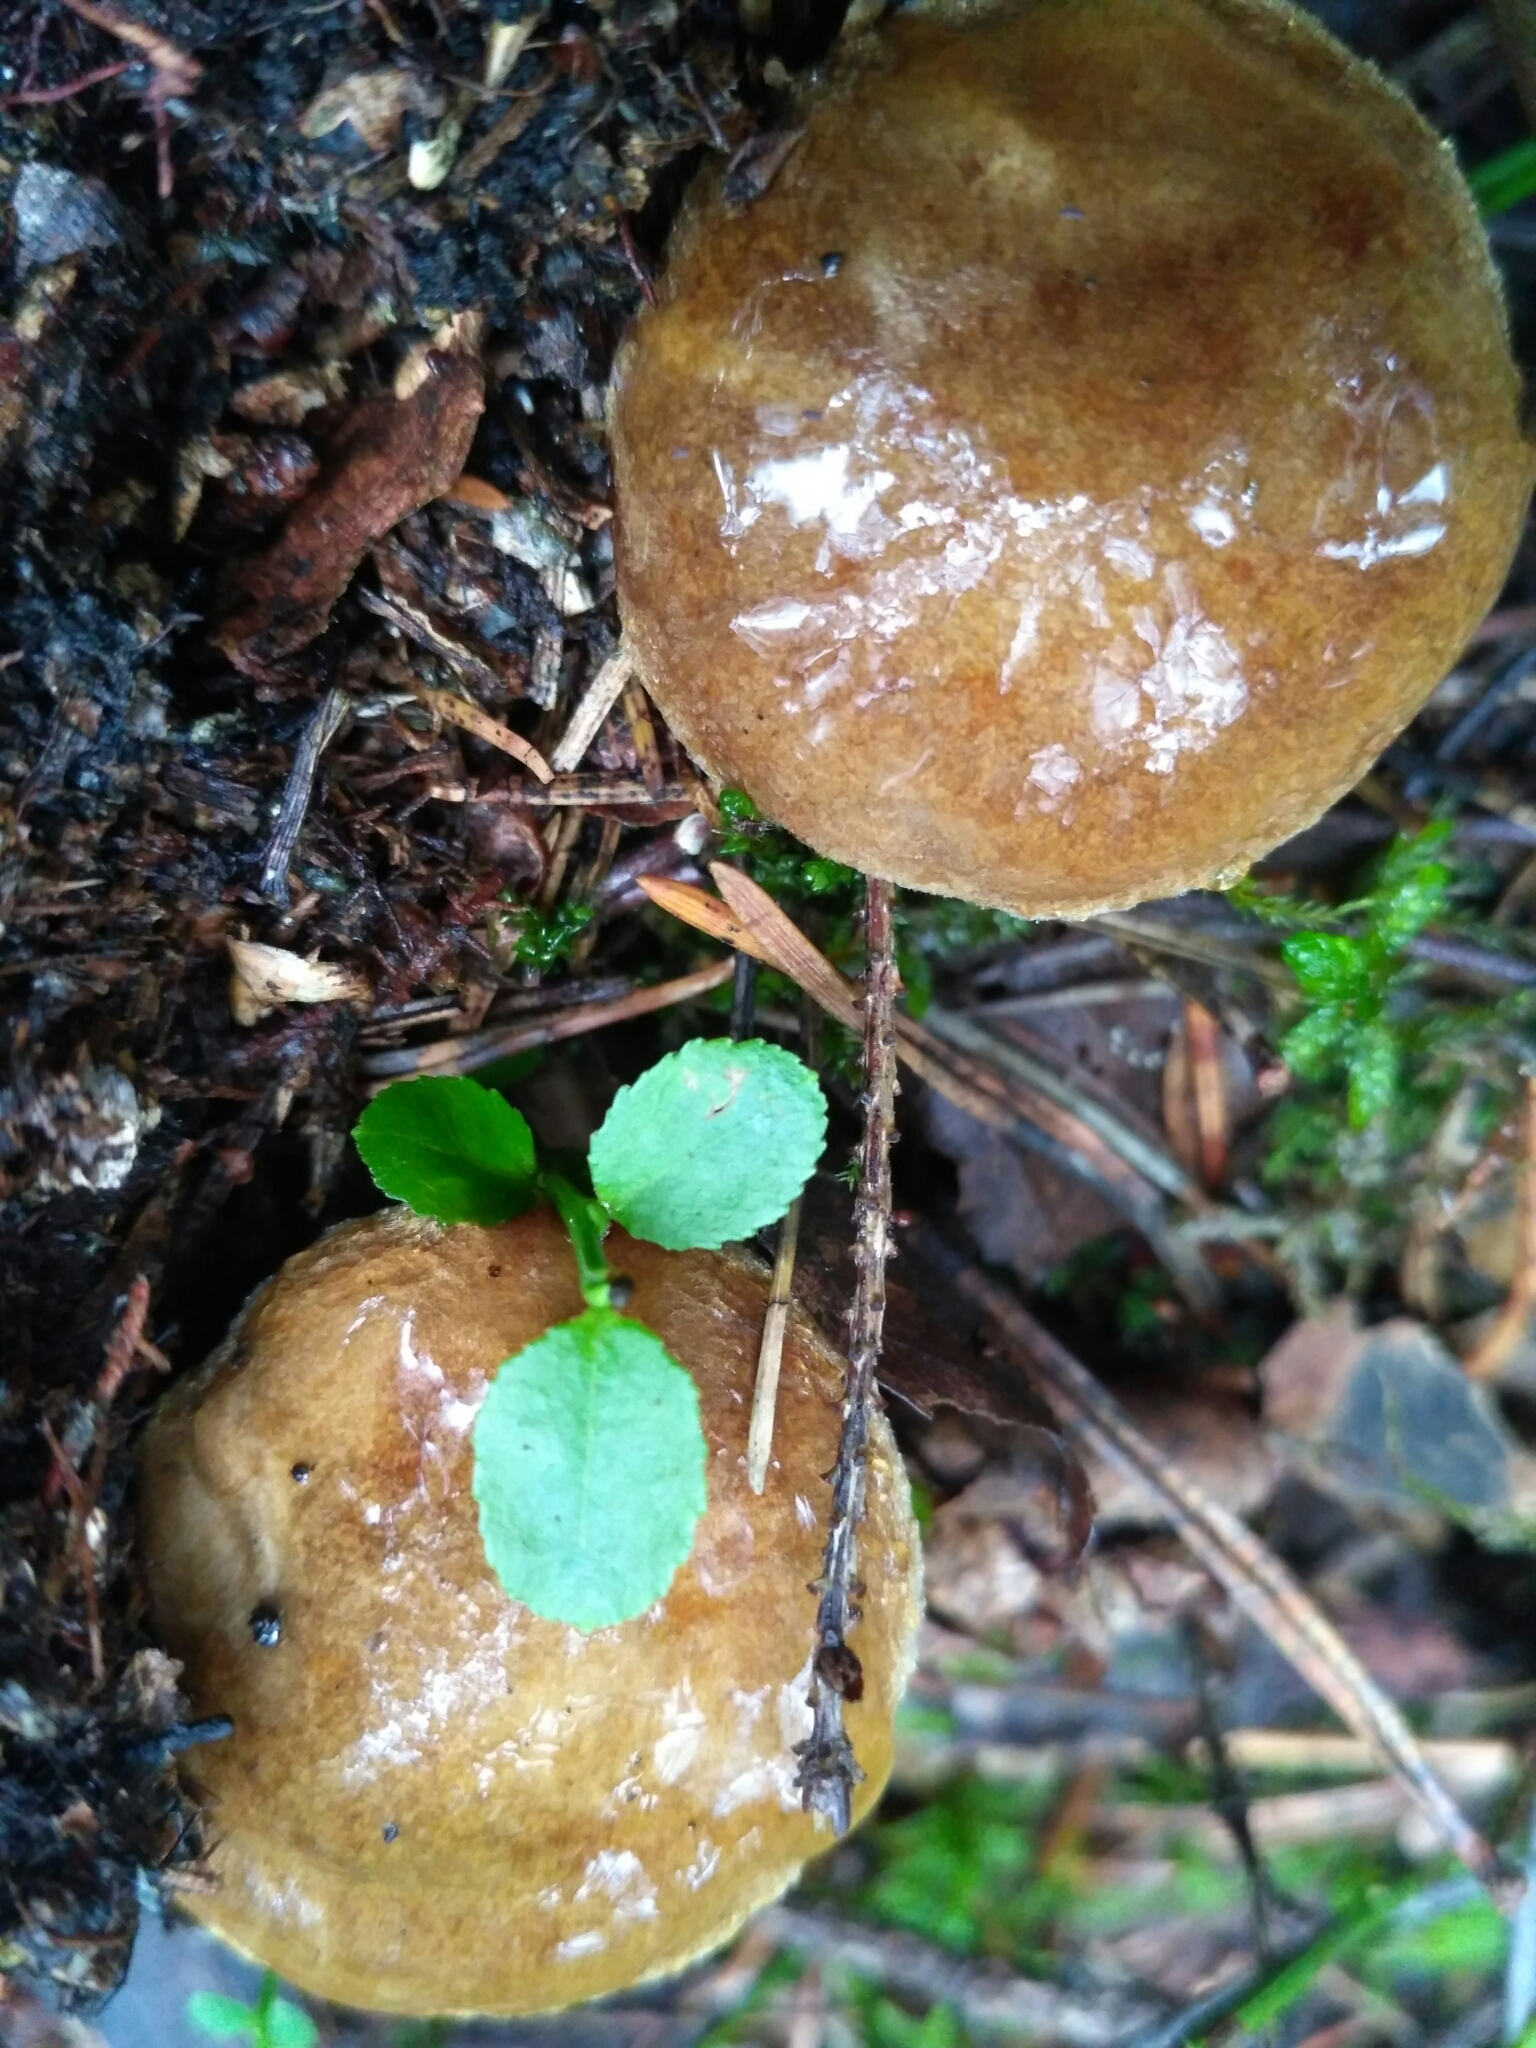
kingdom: Fungi
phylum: Basidiomycota
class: Agaricomycetes
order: Boletales
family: Paxillaceae
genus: Paxillus
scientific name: Paxillus involutus
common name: Brown roll rim
